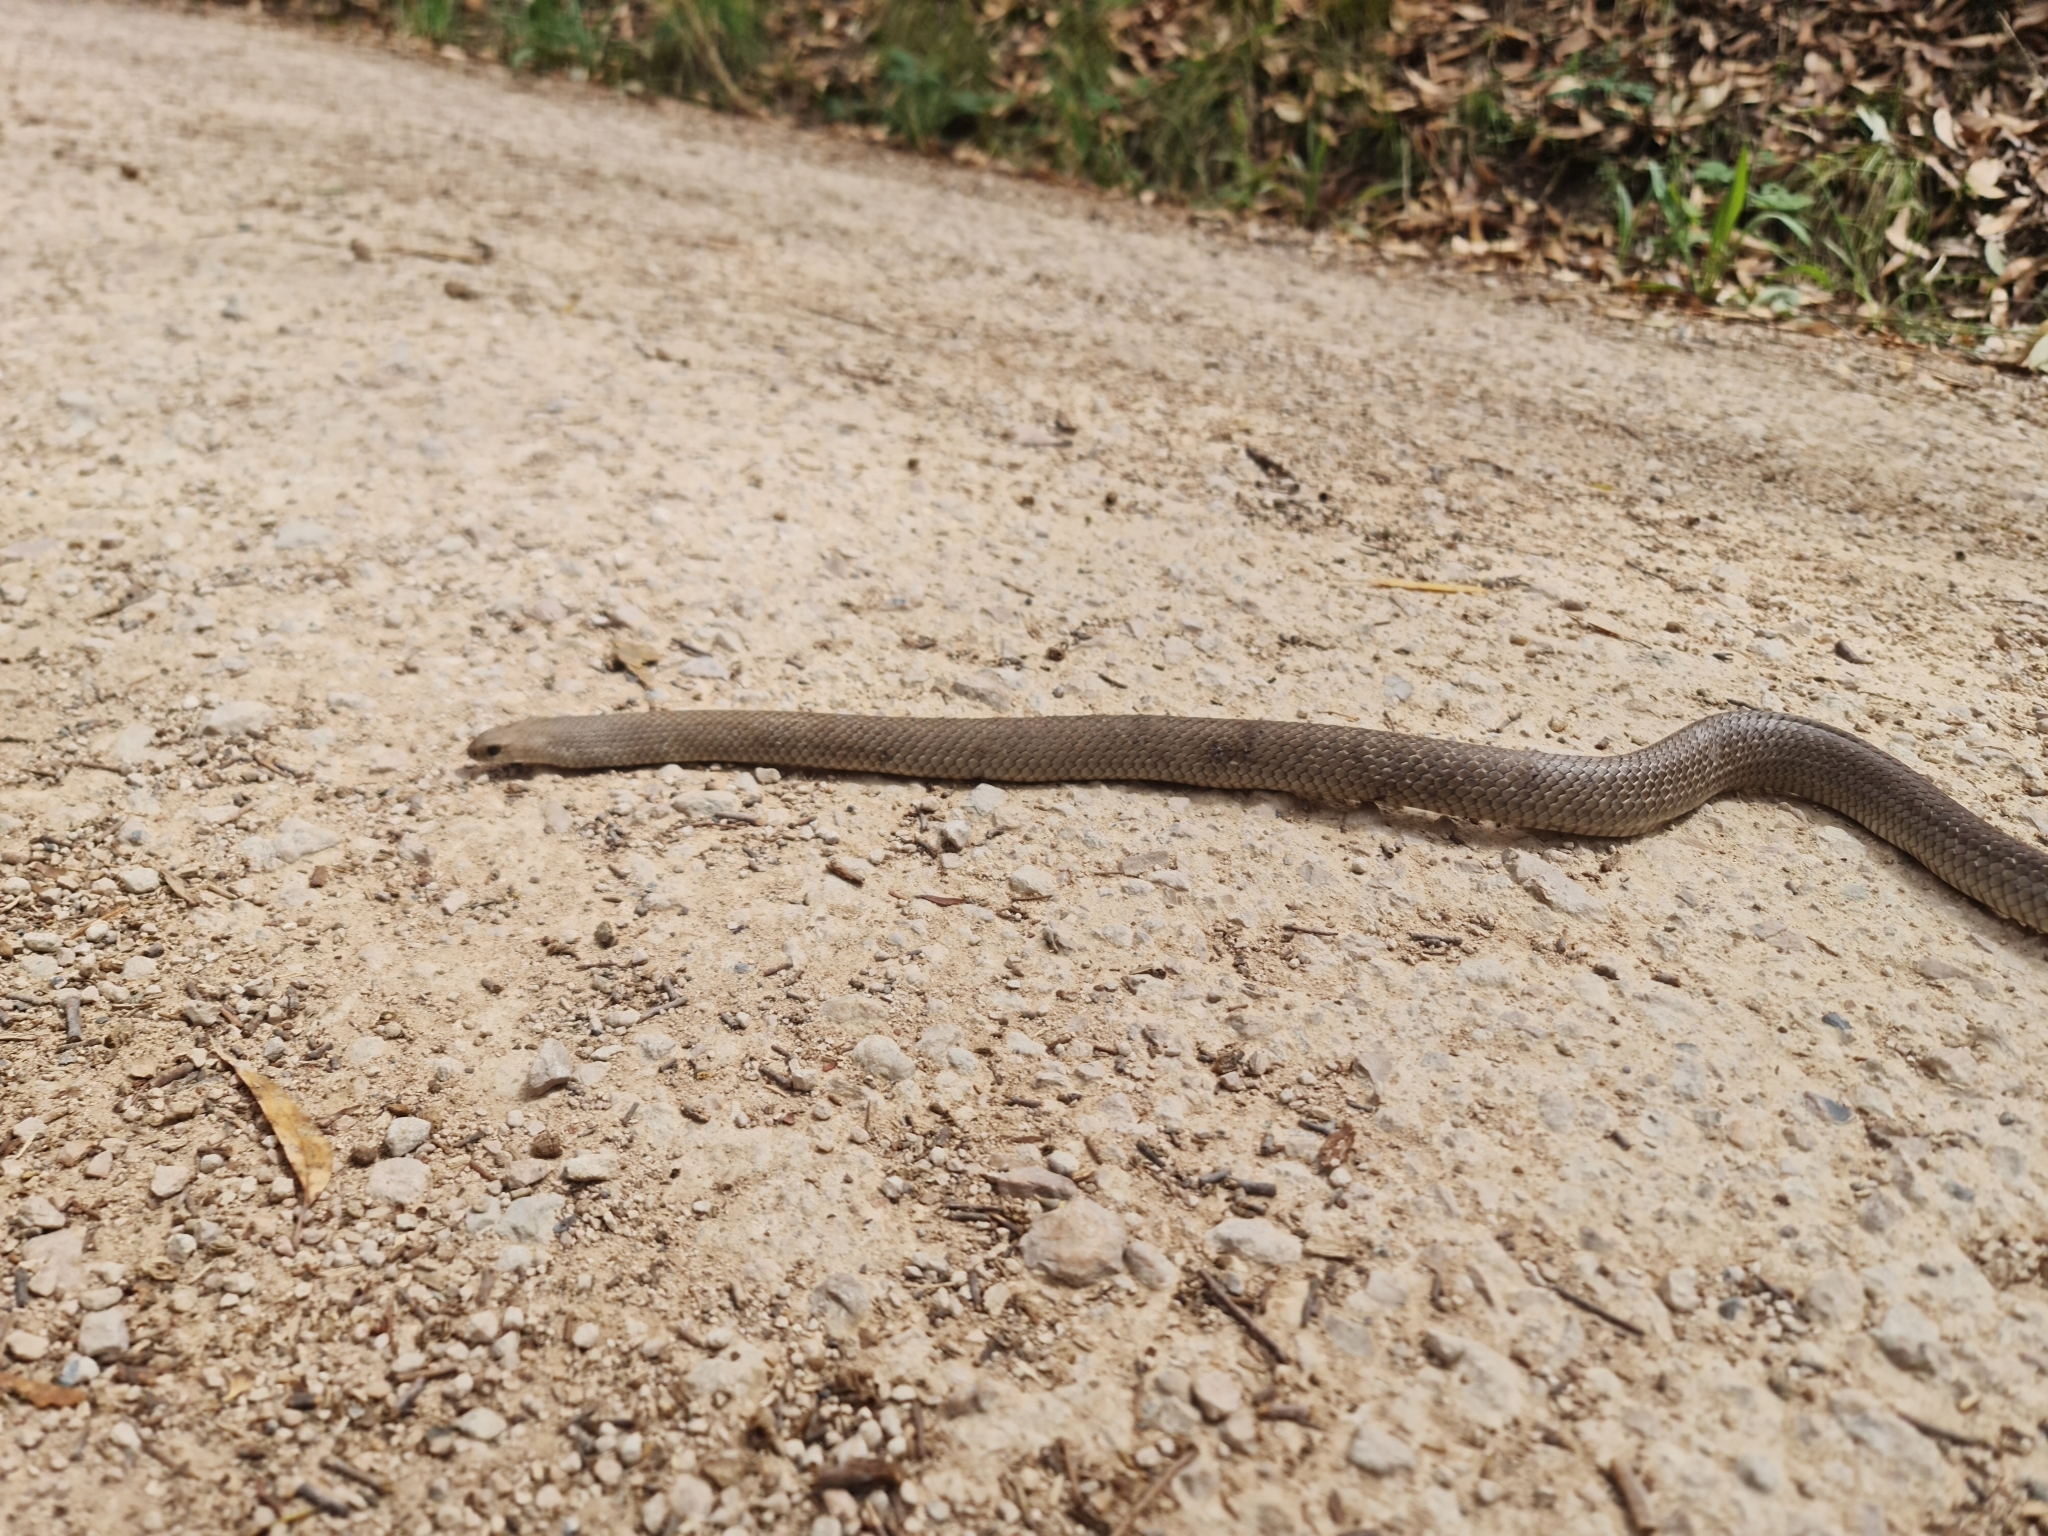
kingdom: Animalia
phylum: Chordata
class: Squamata
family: Elapidae
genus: Pseudonaja
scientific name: Pseudonaja textilis
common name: Eastern brown snake
